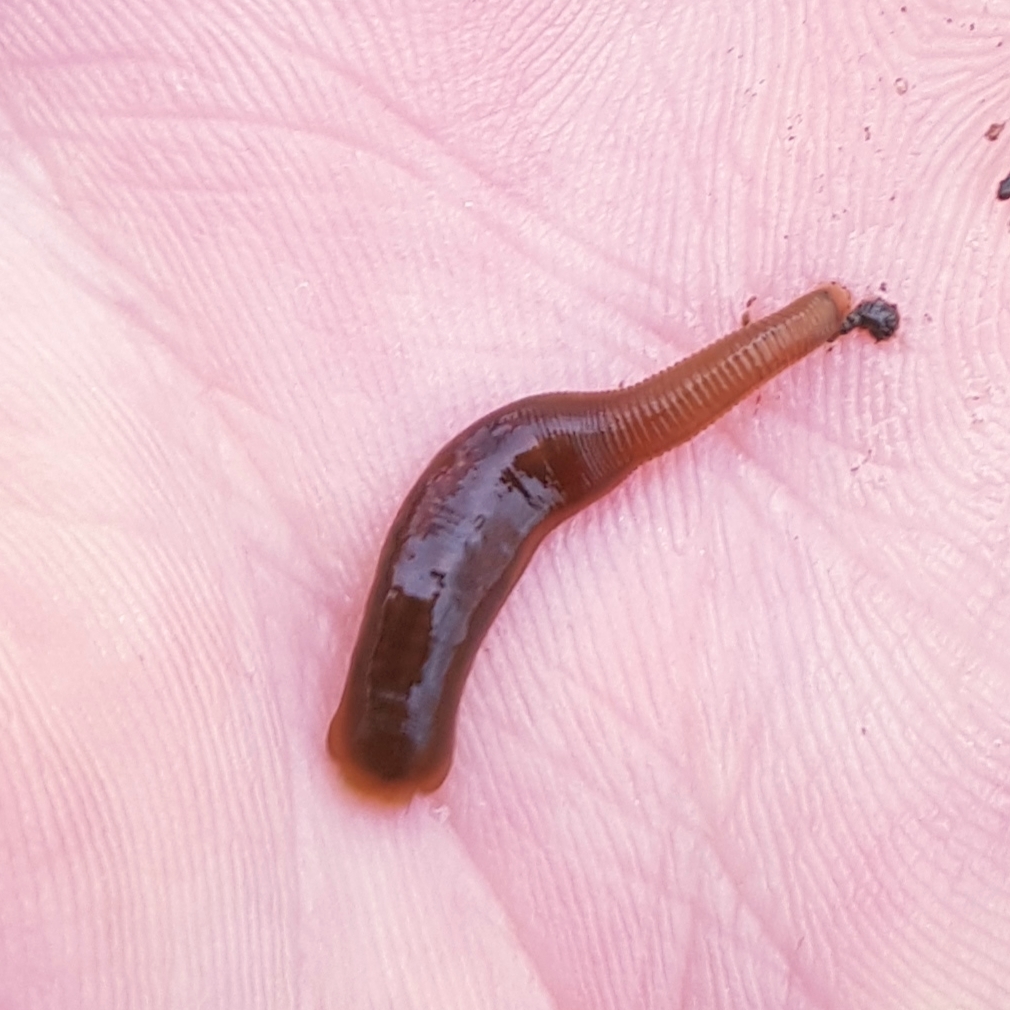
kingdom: Animalia
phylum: Annelida
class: Clitellata
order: Arhynchobdellida
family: Erpobdellidae
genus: Erpobdella
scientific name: Erpobdella nigricollis
